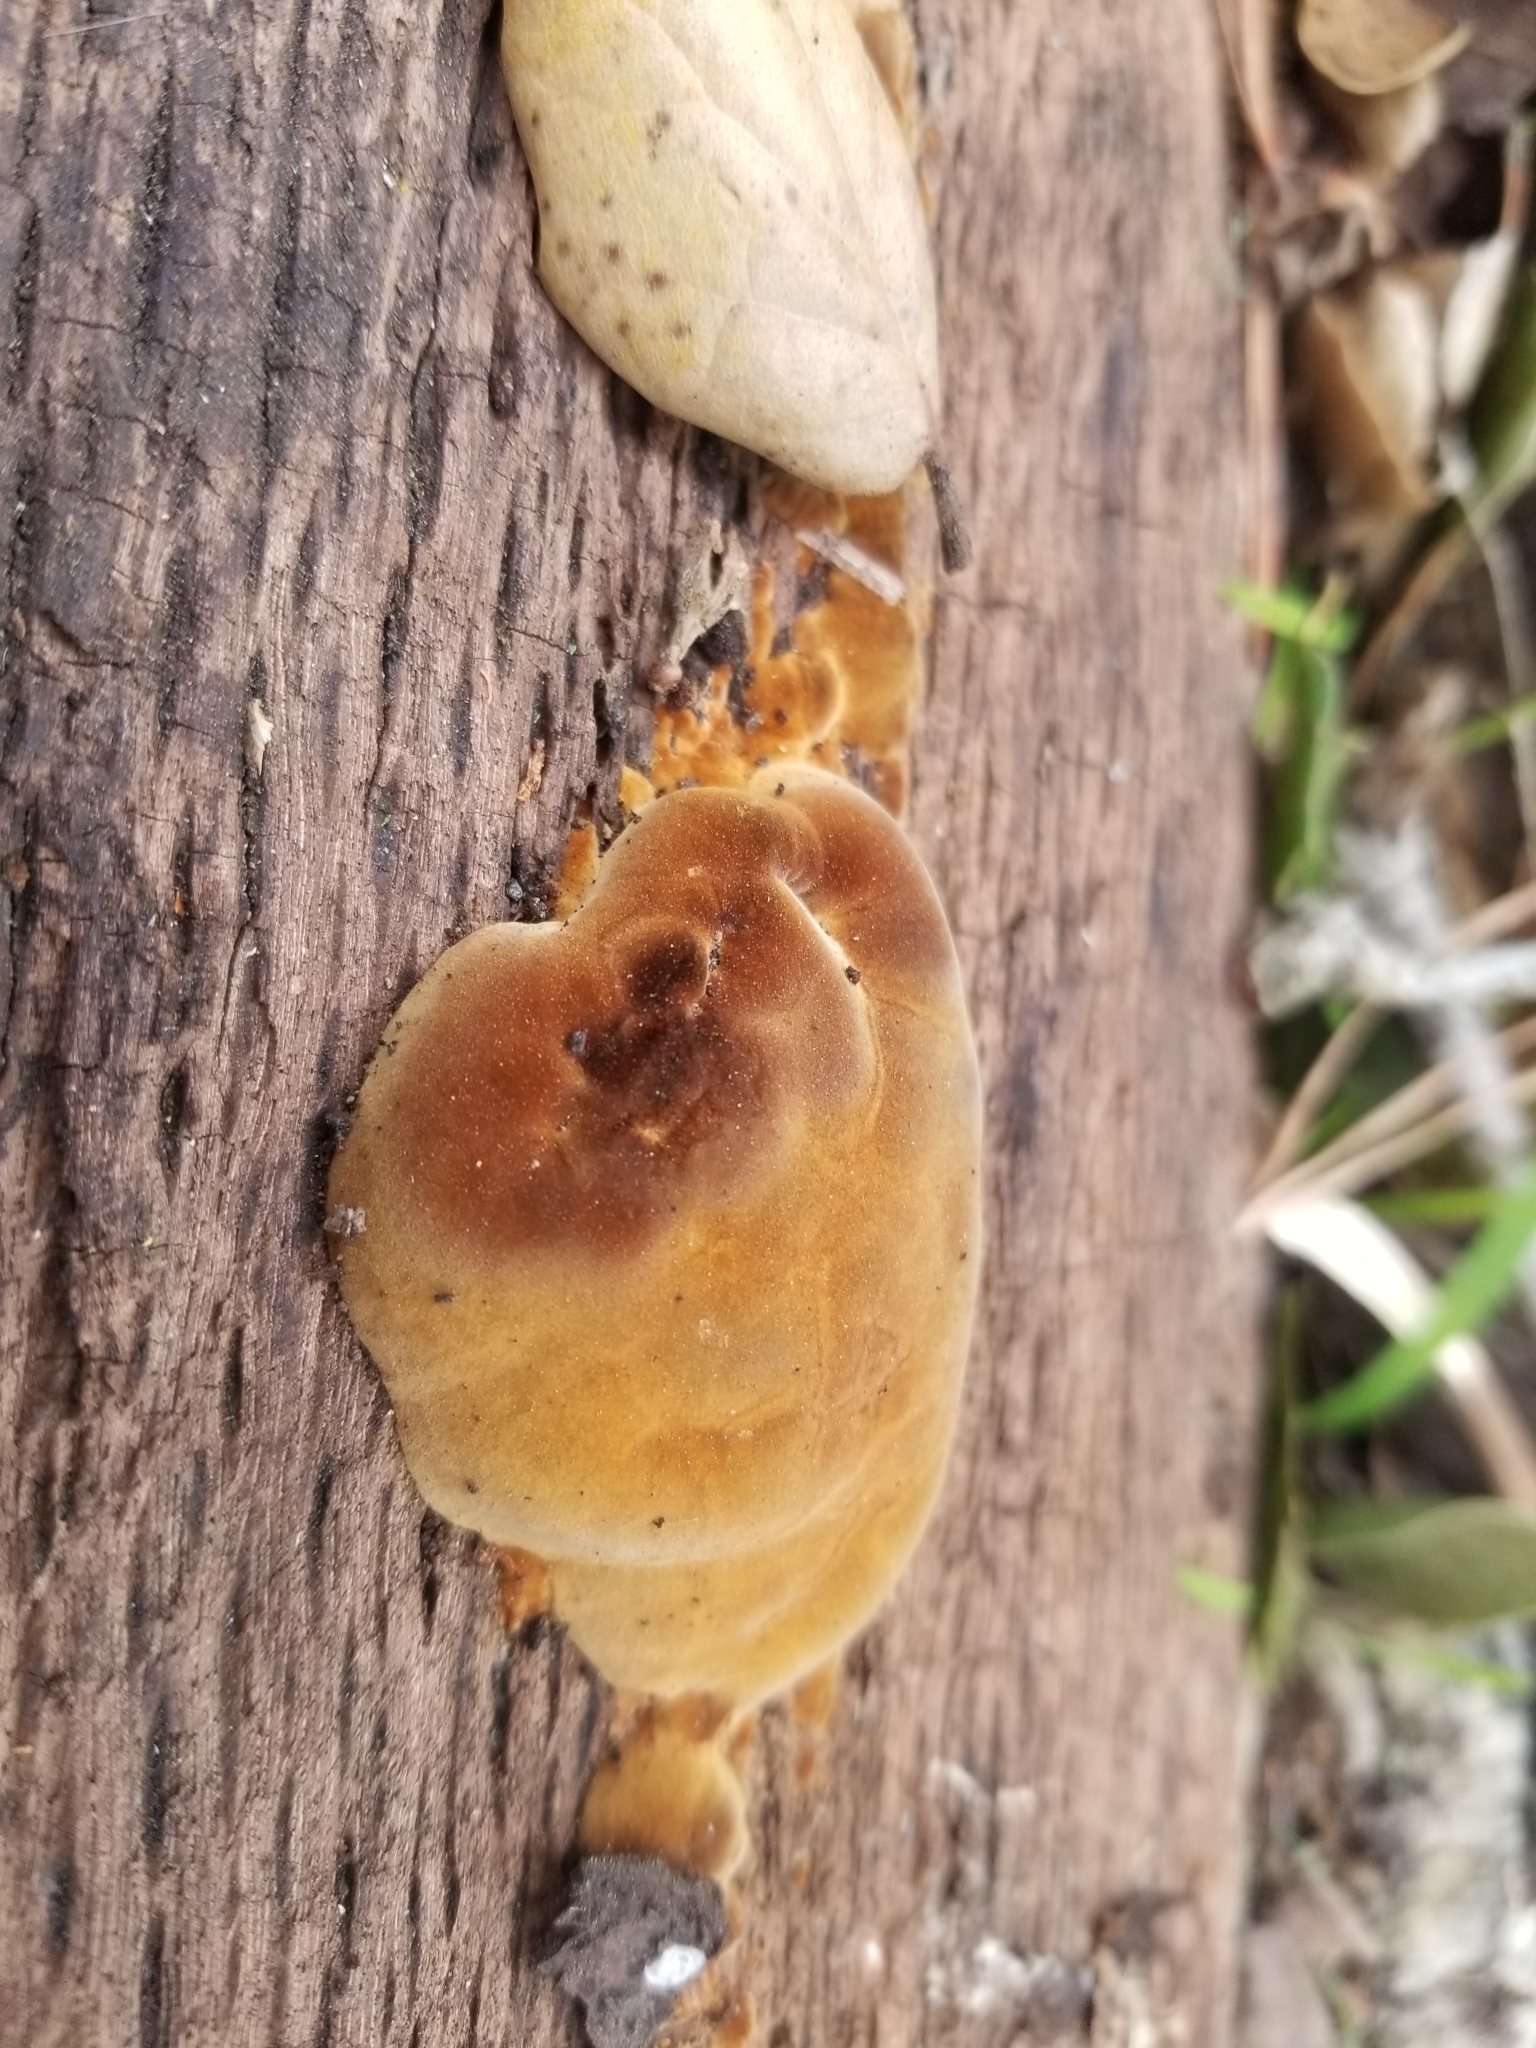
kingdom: Fungi
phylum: Basidiomycota
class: Agaricomycetes
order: Hymenochaetales
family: Hymenochaetaceae
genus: Phellinus
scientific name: Phellinus gilvus
